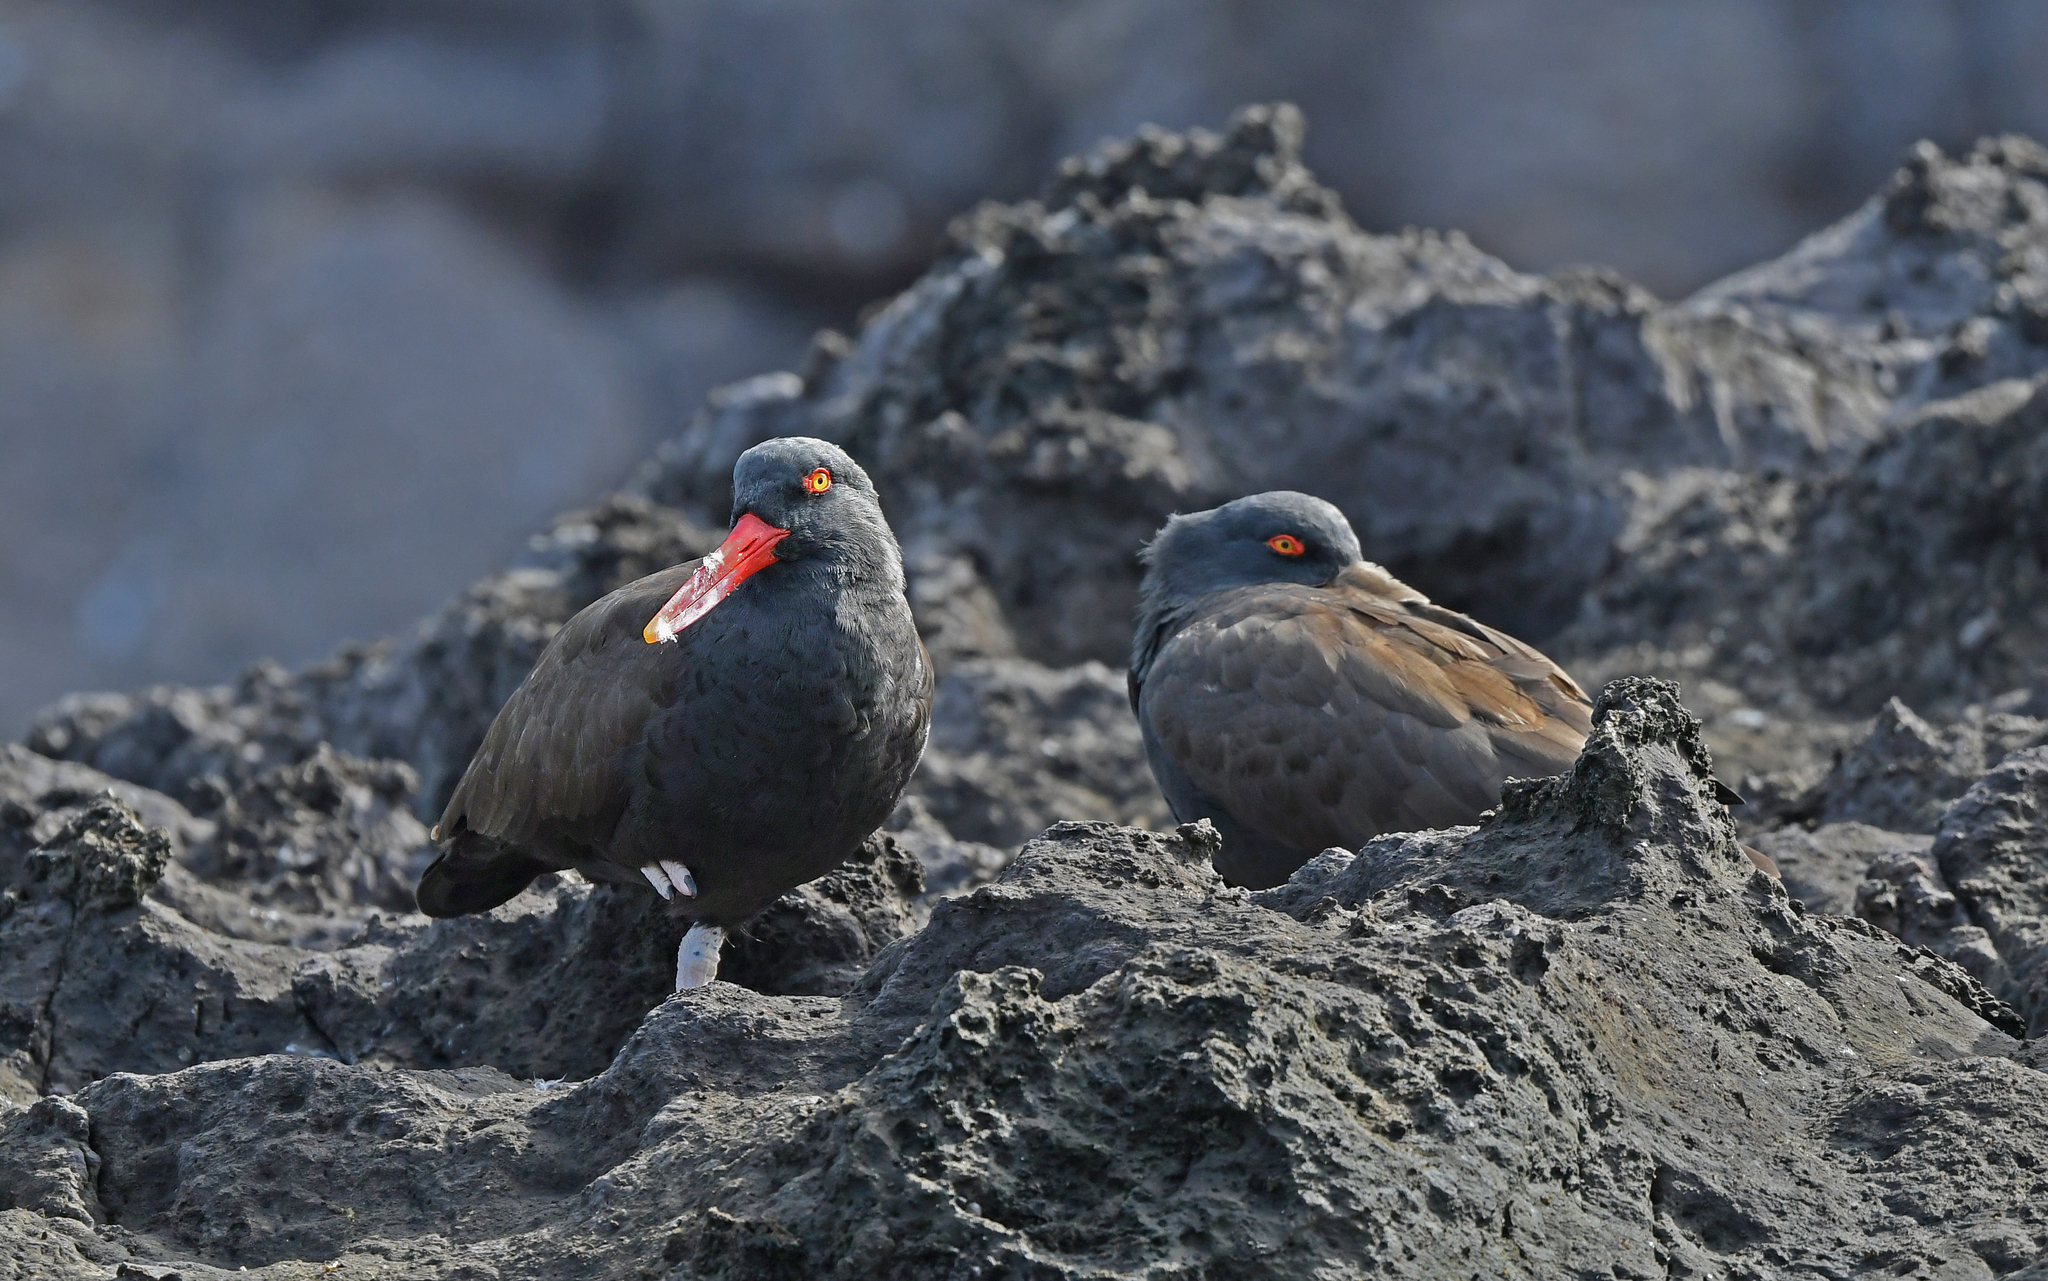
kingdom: Animalia
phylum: Chordata
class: Aves
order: Charadriiformes
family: Haematopodidae
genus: Haematopus
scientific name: Haematopus ater
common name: Blackish oystercatcher
